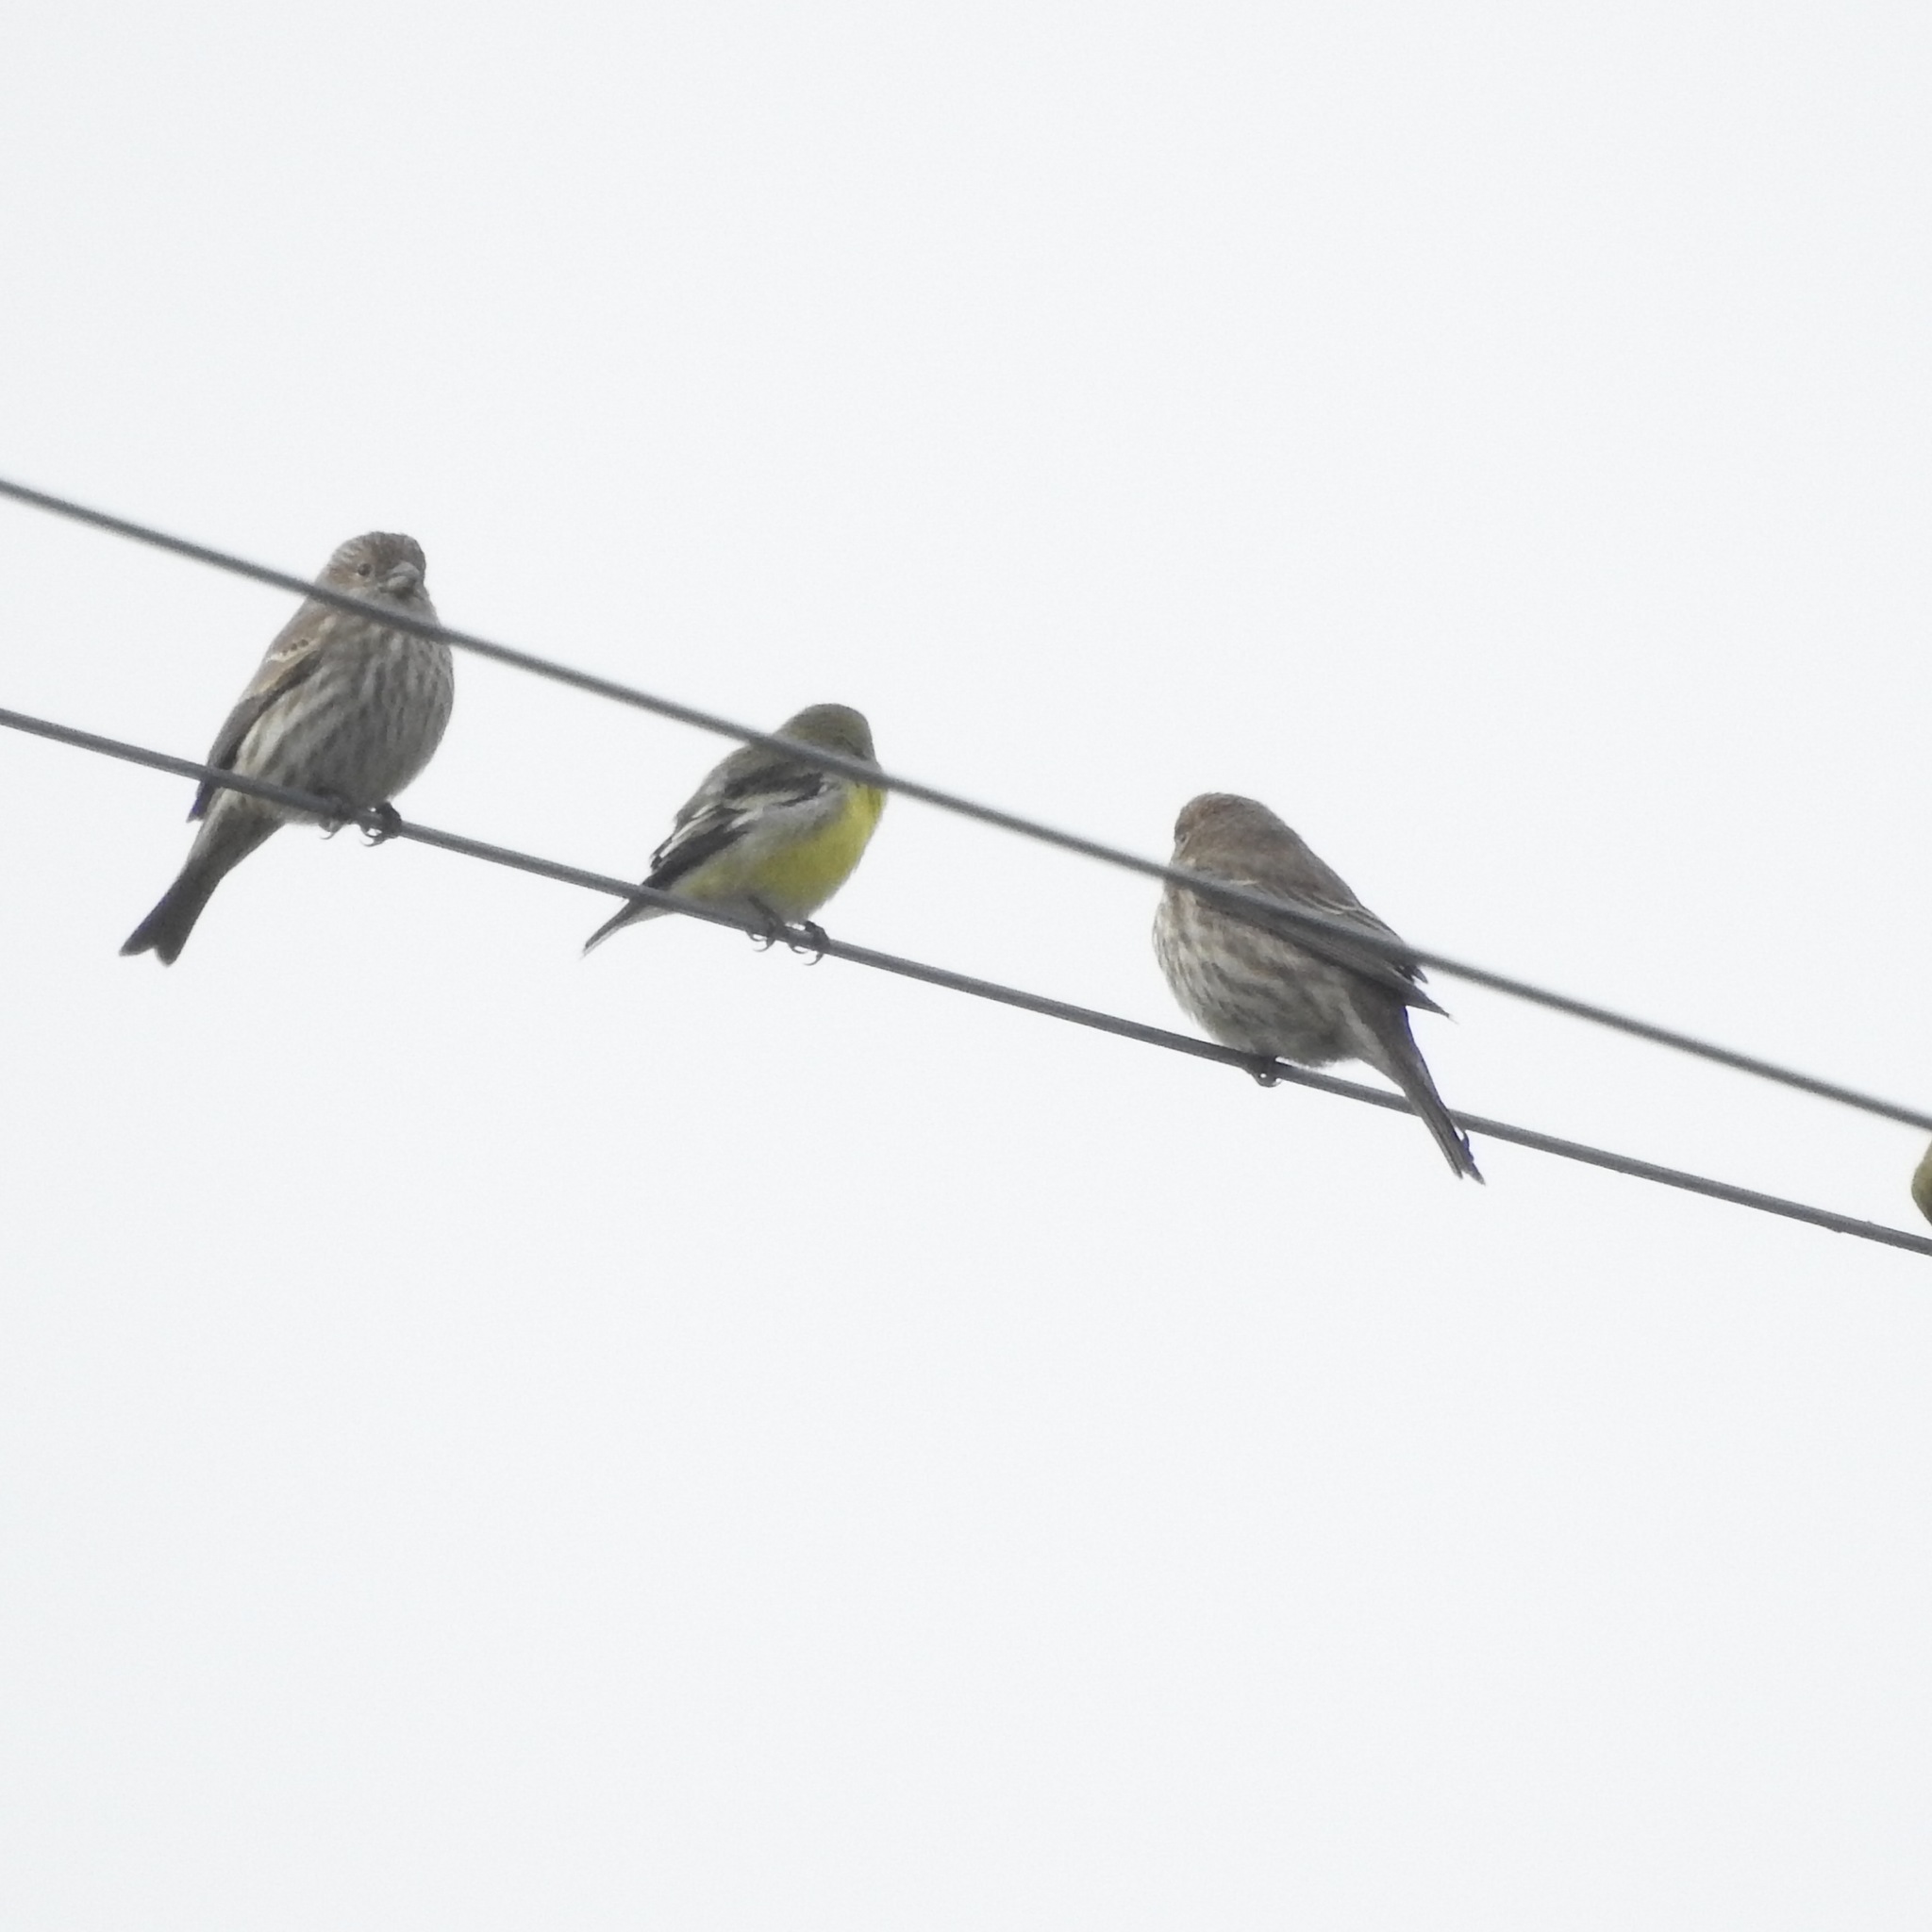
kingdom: Animalia
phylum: Chordata
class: Aves
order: Passeriformes
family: Fringillidae
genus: Spinus
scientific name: Spinus psaltria
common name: Lesser goldfinch
